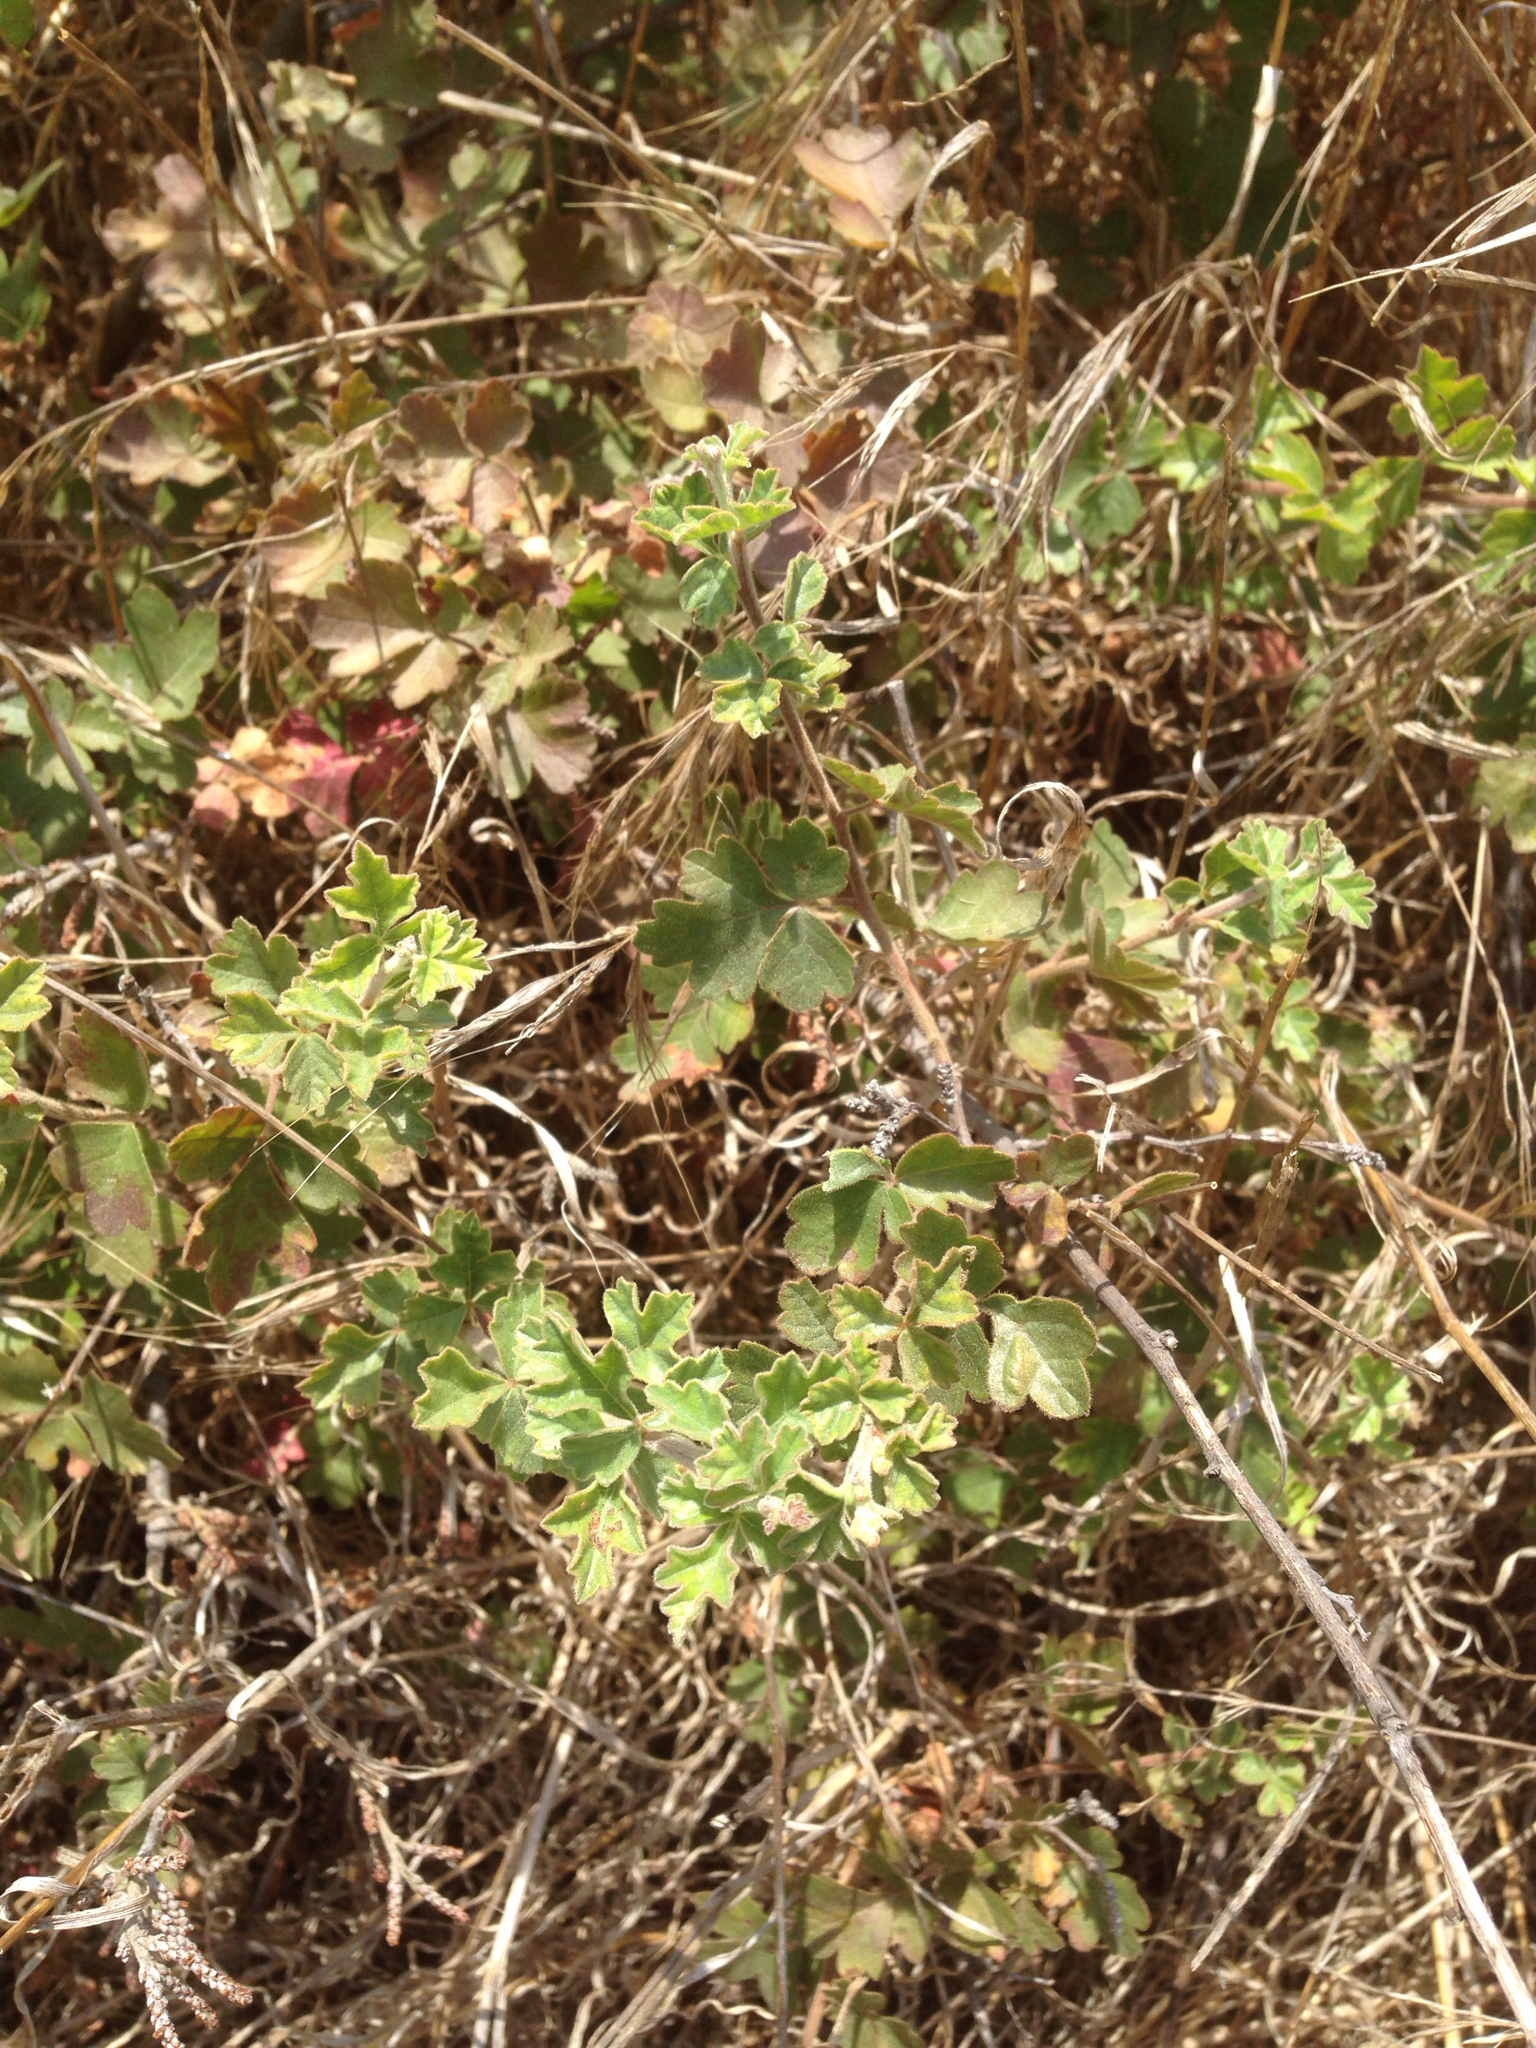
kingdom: Plantae
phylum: Tracheophyta
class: Magnoliopsida
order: Sapindales
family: Anacardiaceae
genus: Rhus
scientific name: Rhus aromatica
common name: Aromatic sumac
